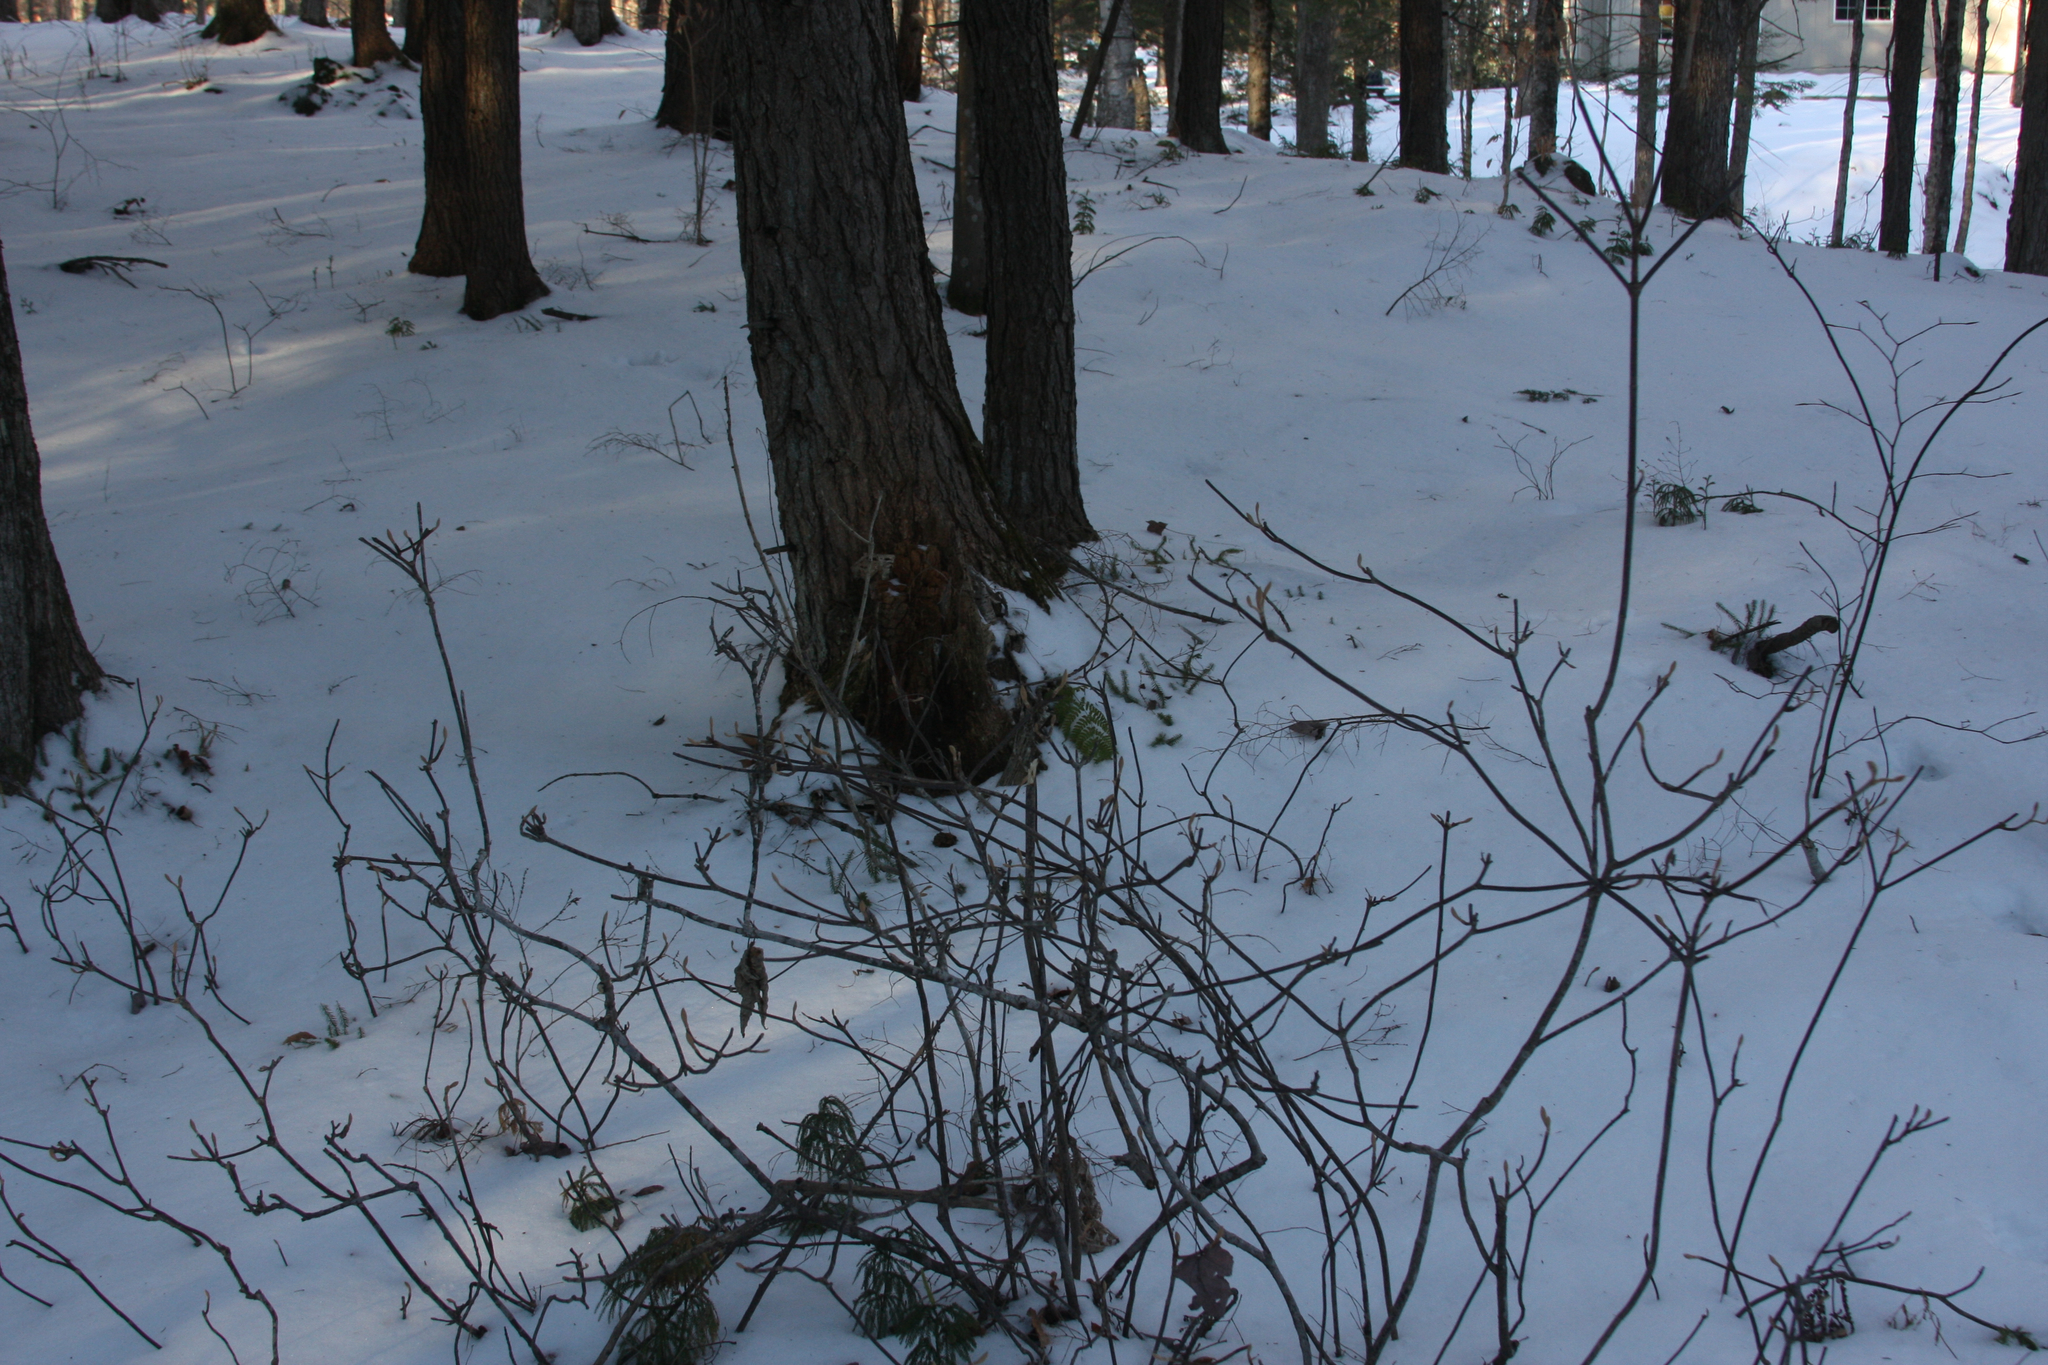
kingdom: Plantae
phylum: Tracheophyta
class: Magnoliopsida
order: Dipsacales
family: Viburnaceae
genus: Viburnum
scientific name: Viburnum lantanoides
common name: Hobblebush
